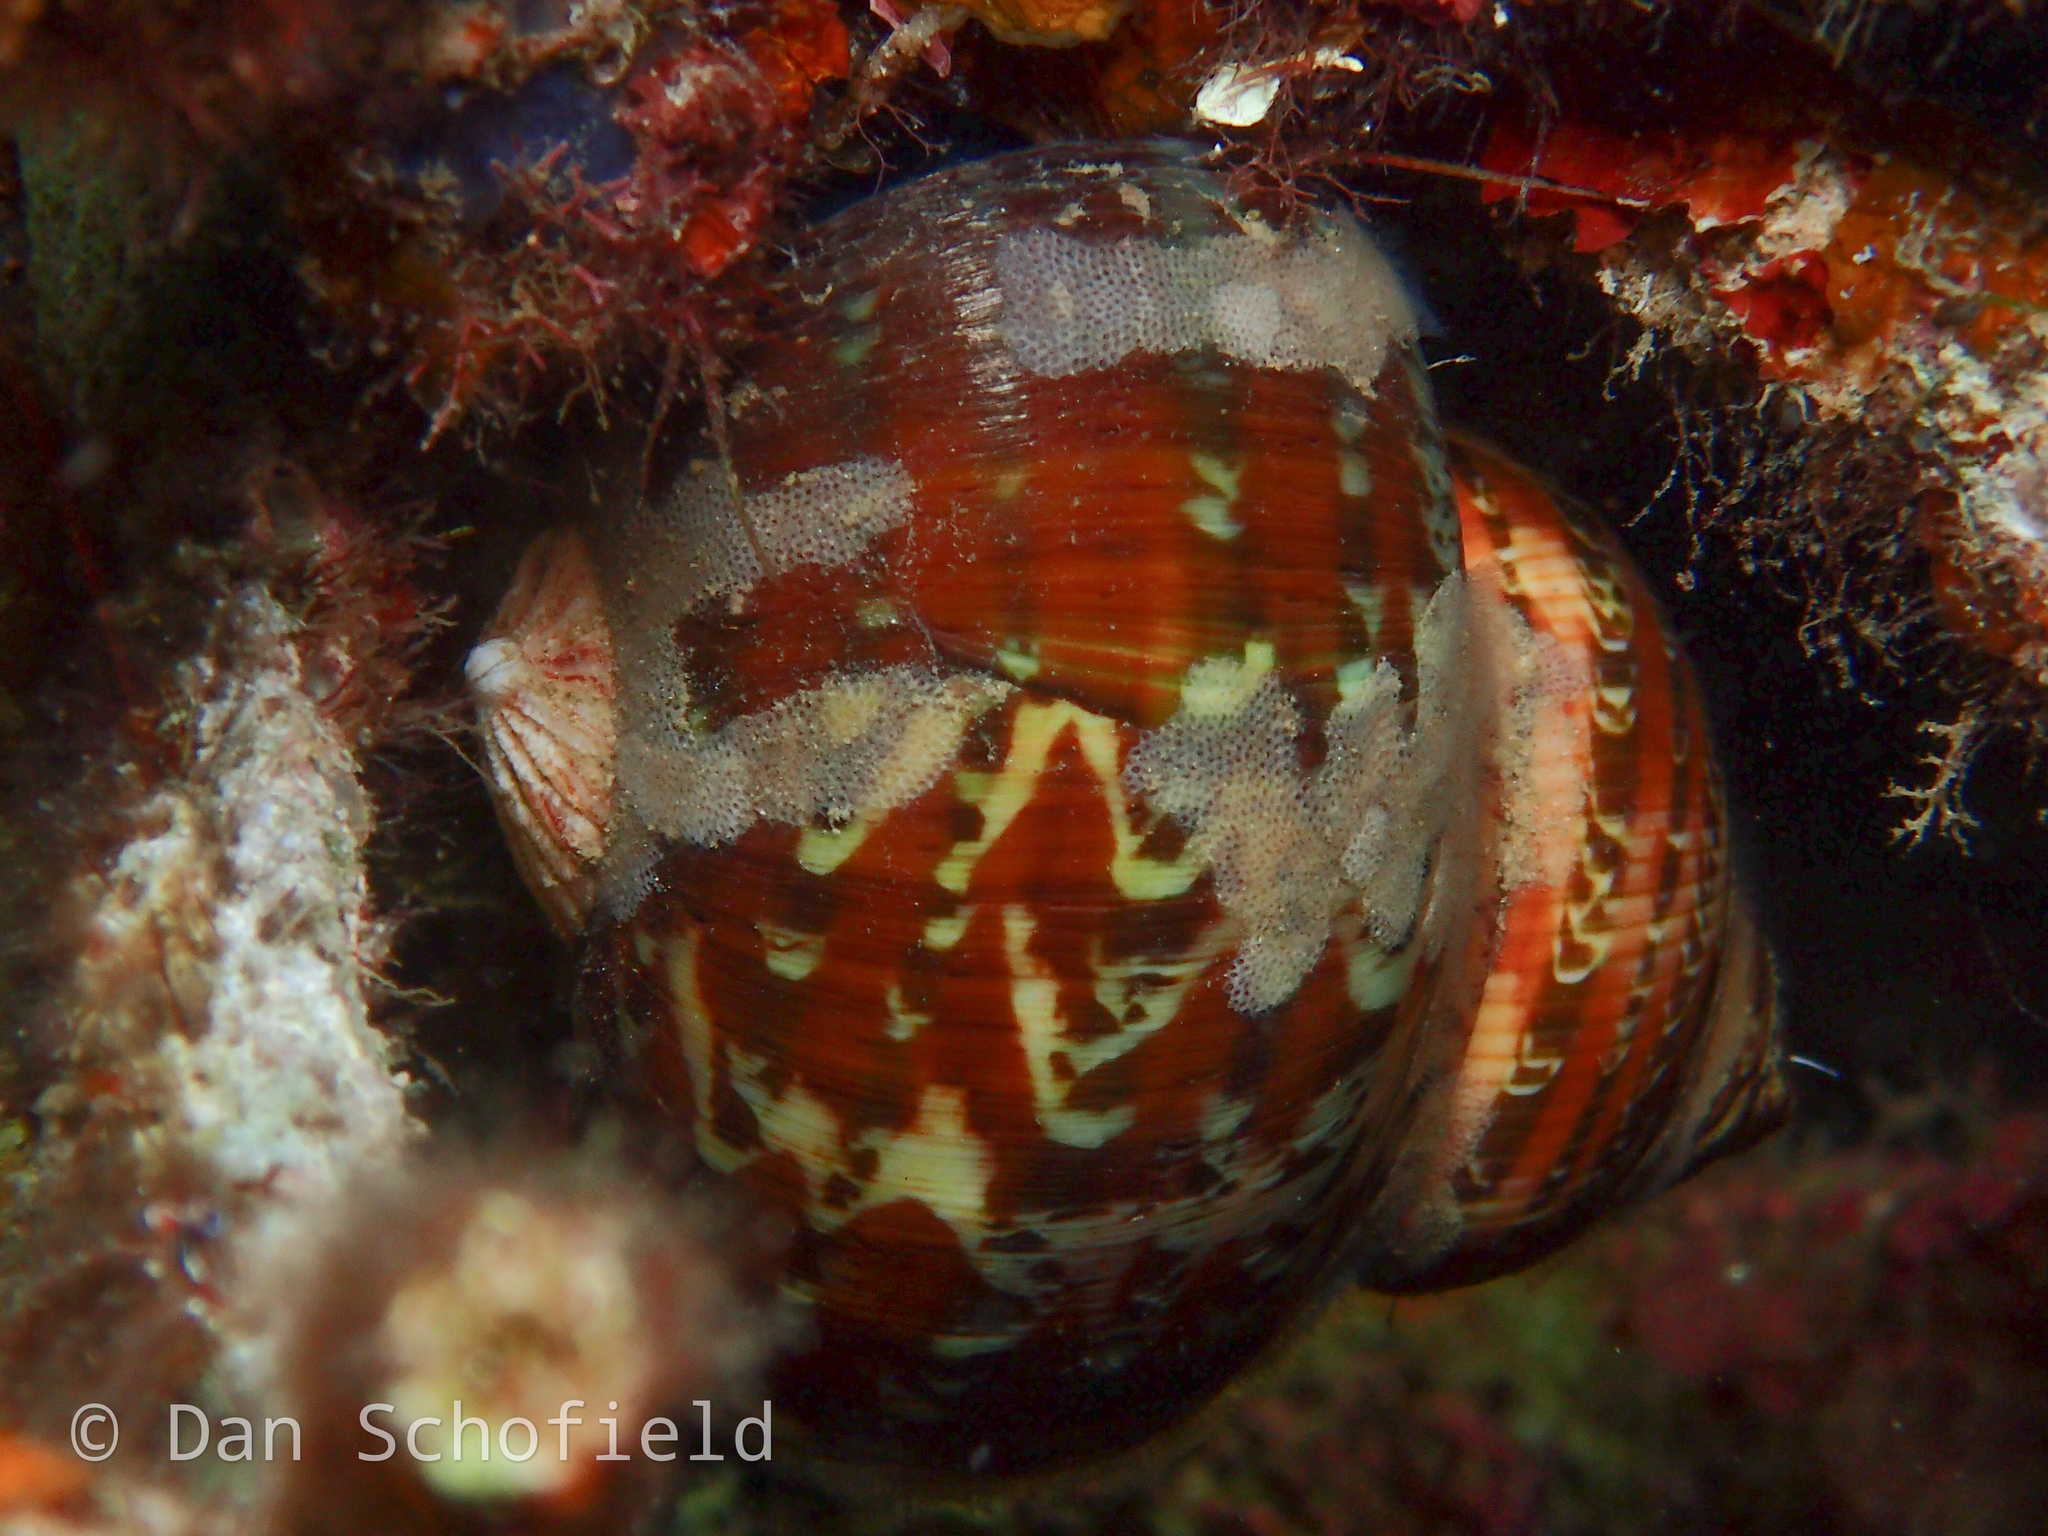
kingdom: Animalia
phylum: Mollusca
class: Gastropoda
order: Trochida
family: Turbinidae
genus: Turbo
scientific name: Turbo petholatus
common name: Cat's-eye shell
